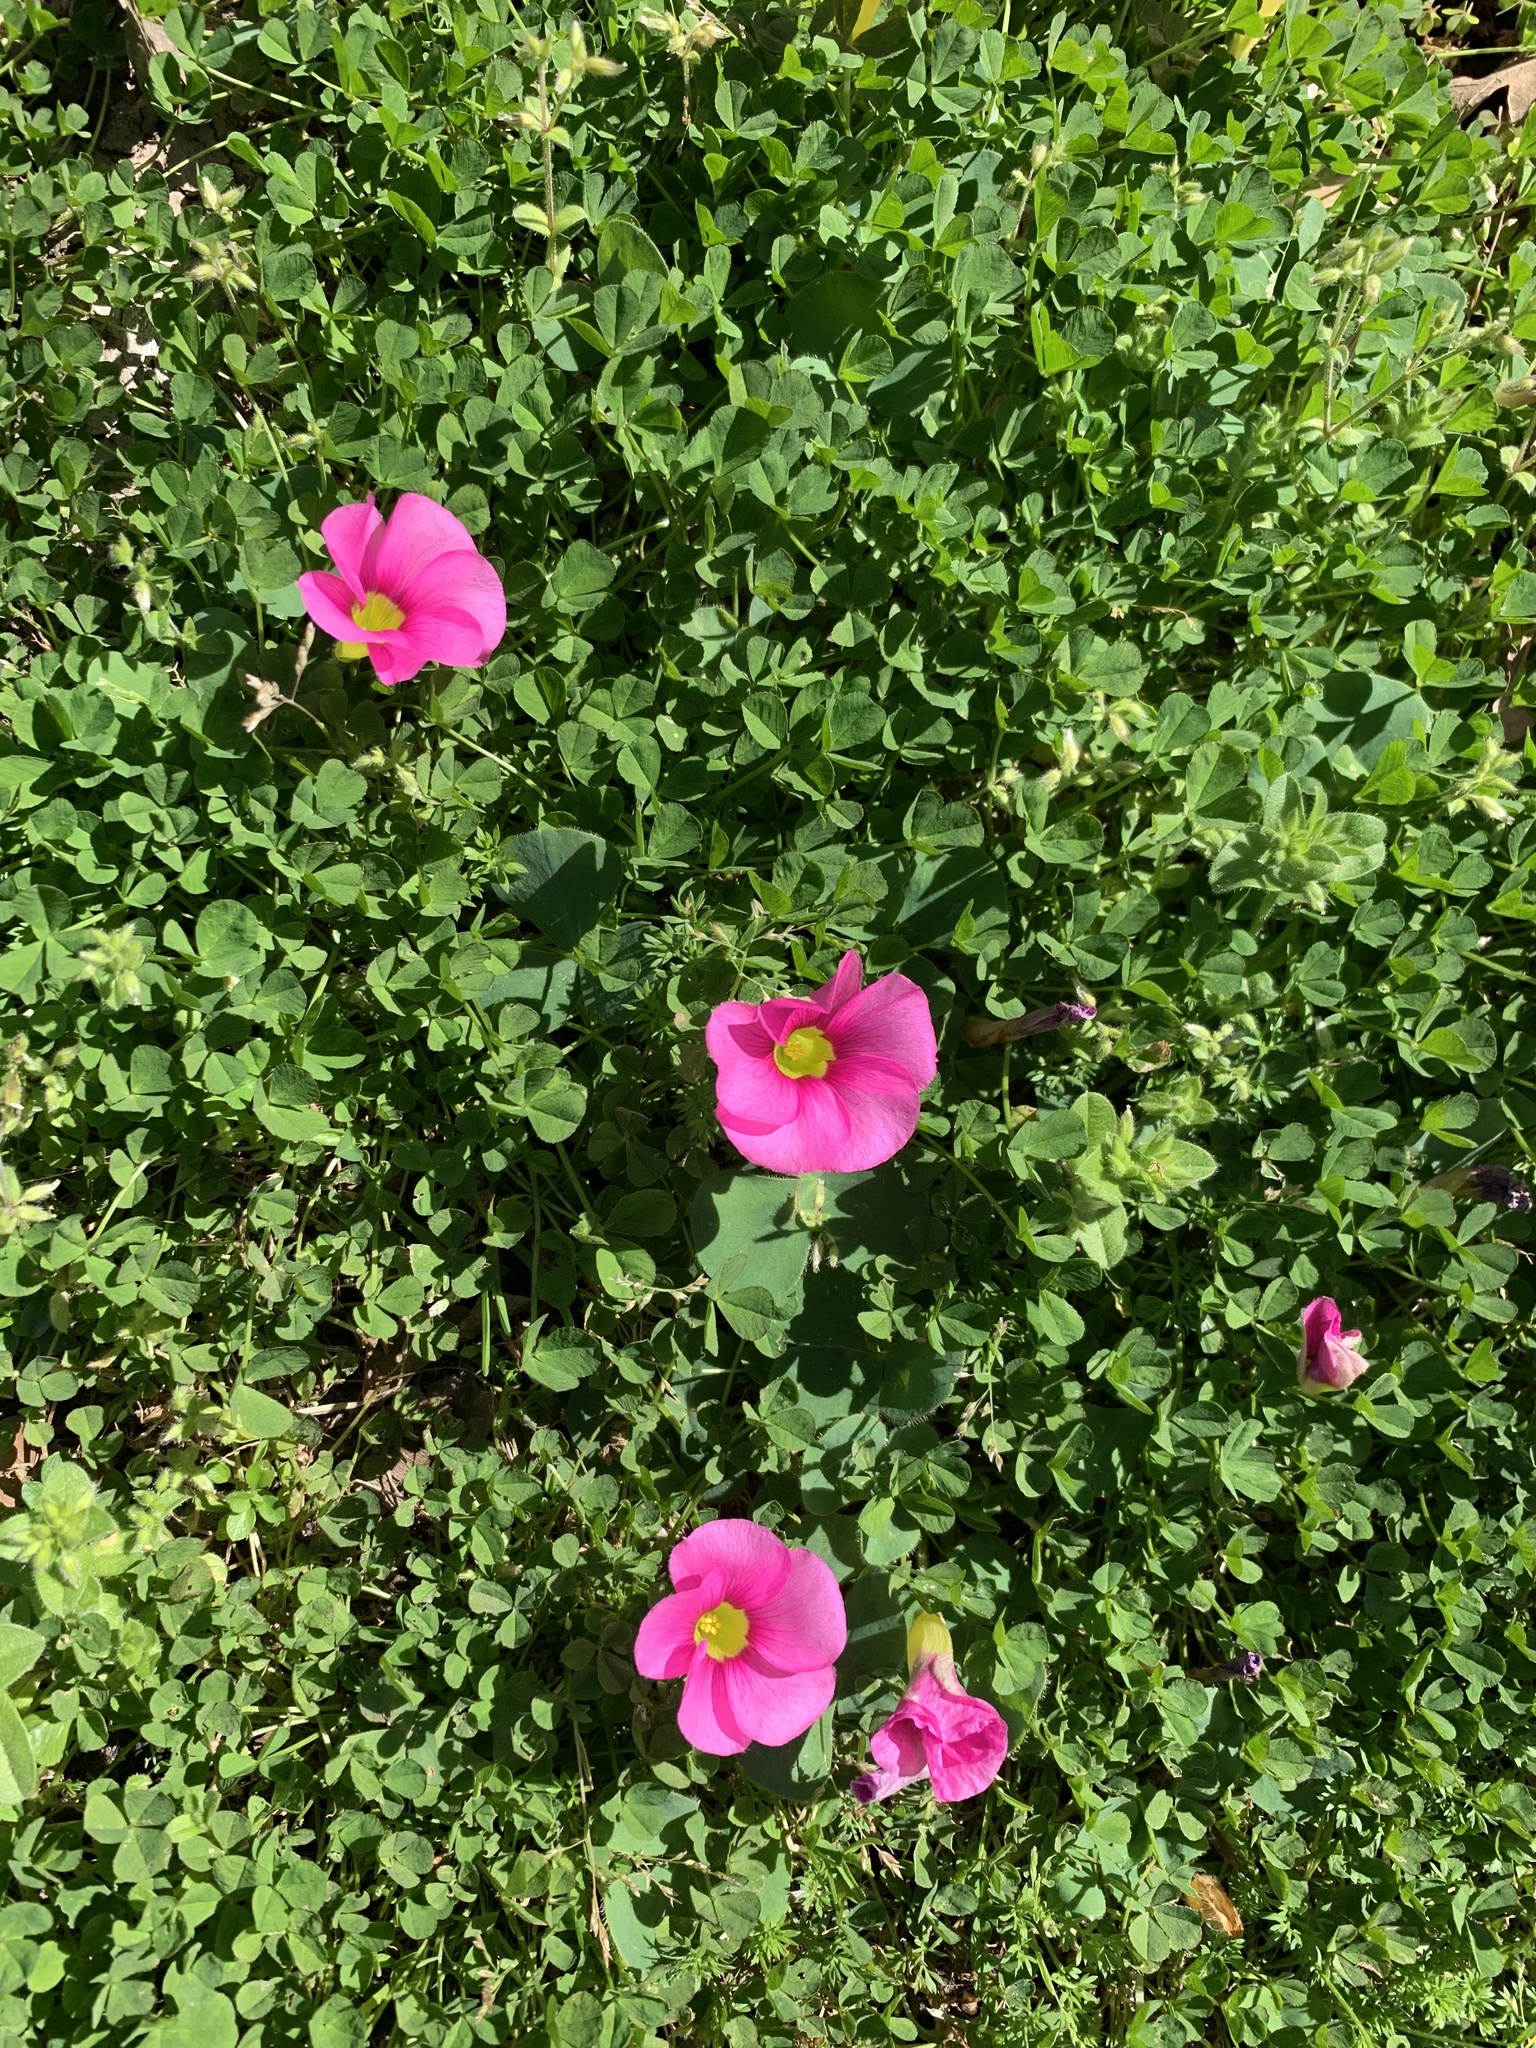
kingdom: Plantae
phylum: Tracheophyta
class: Magnoliopsida
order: Oxalidales
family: Oxalidaceae
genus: Oxalis
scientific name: Oxalis purpurea
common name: Purple woodsorrel
